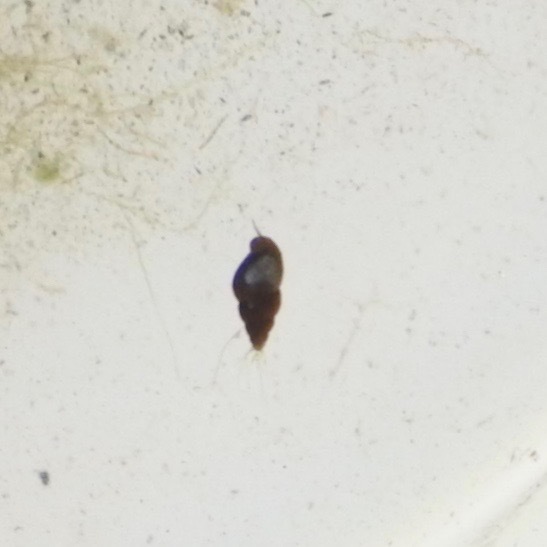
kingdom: Animalia
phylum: Mollusca
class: Gastropoda
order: Littorinimorpha
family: Tateidae
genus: Potamopyrgus
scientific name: Potamopyrgus antipodarum
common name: Jenkins' spire snail
